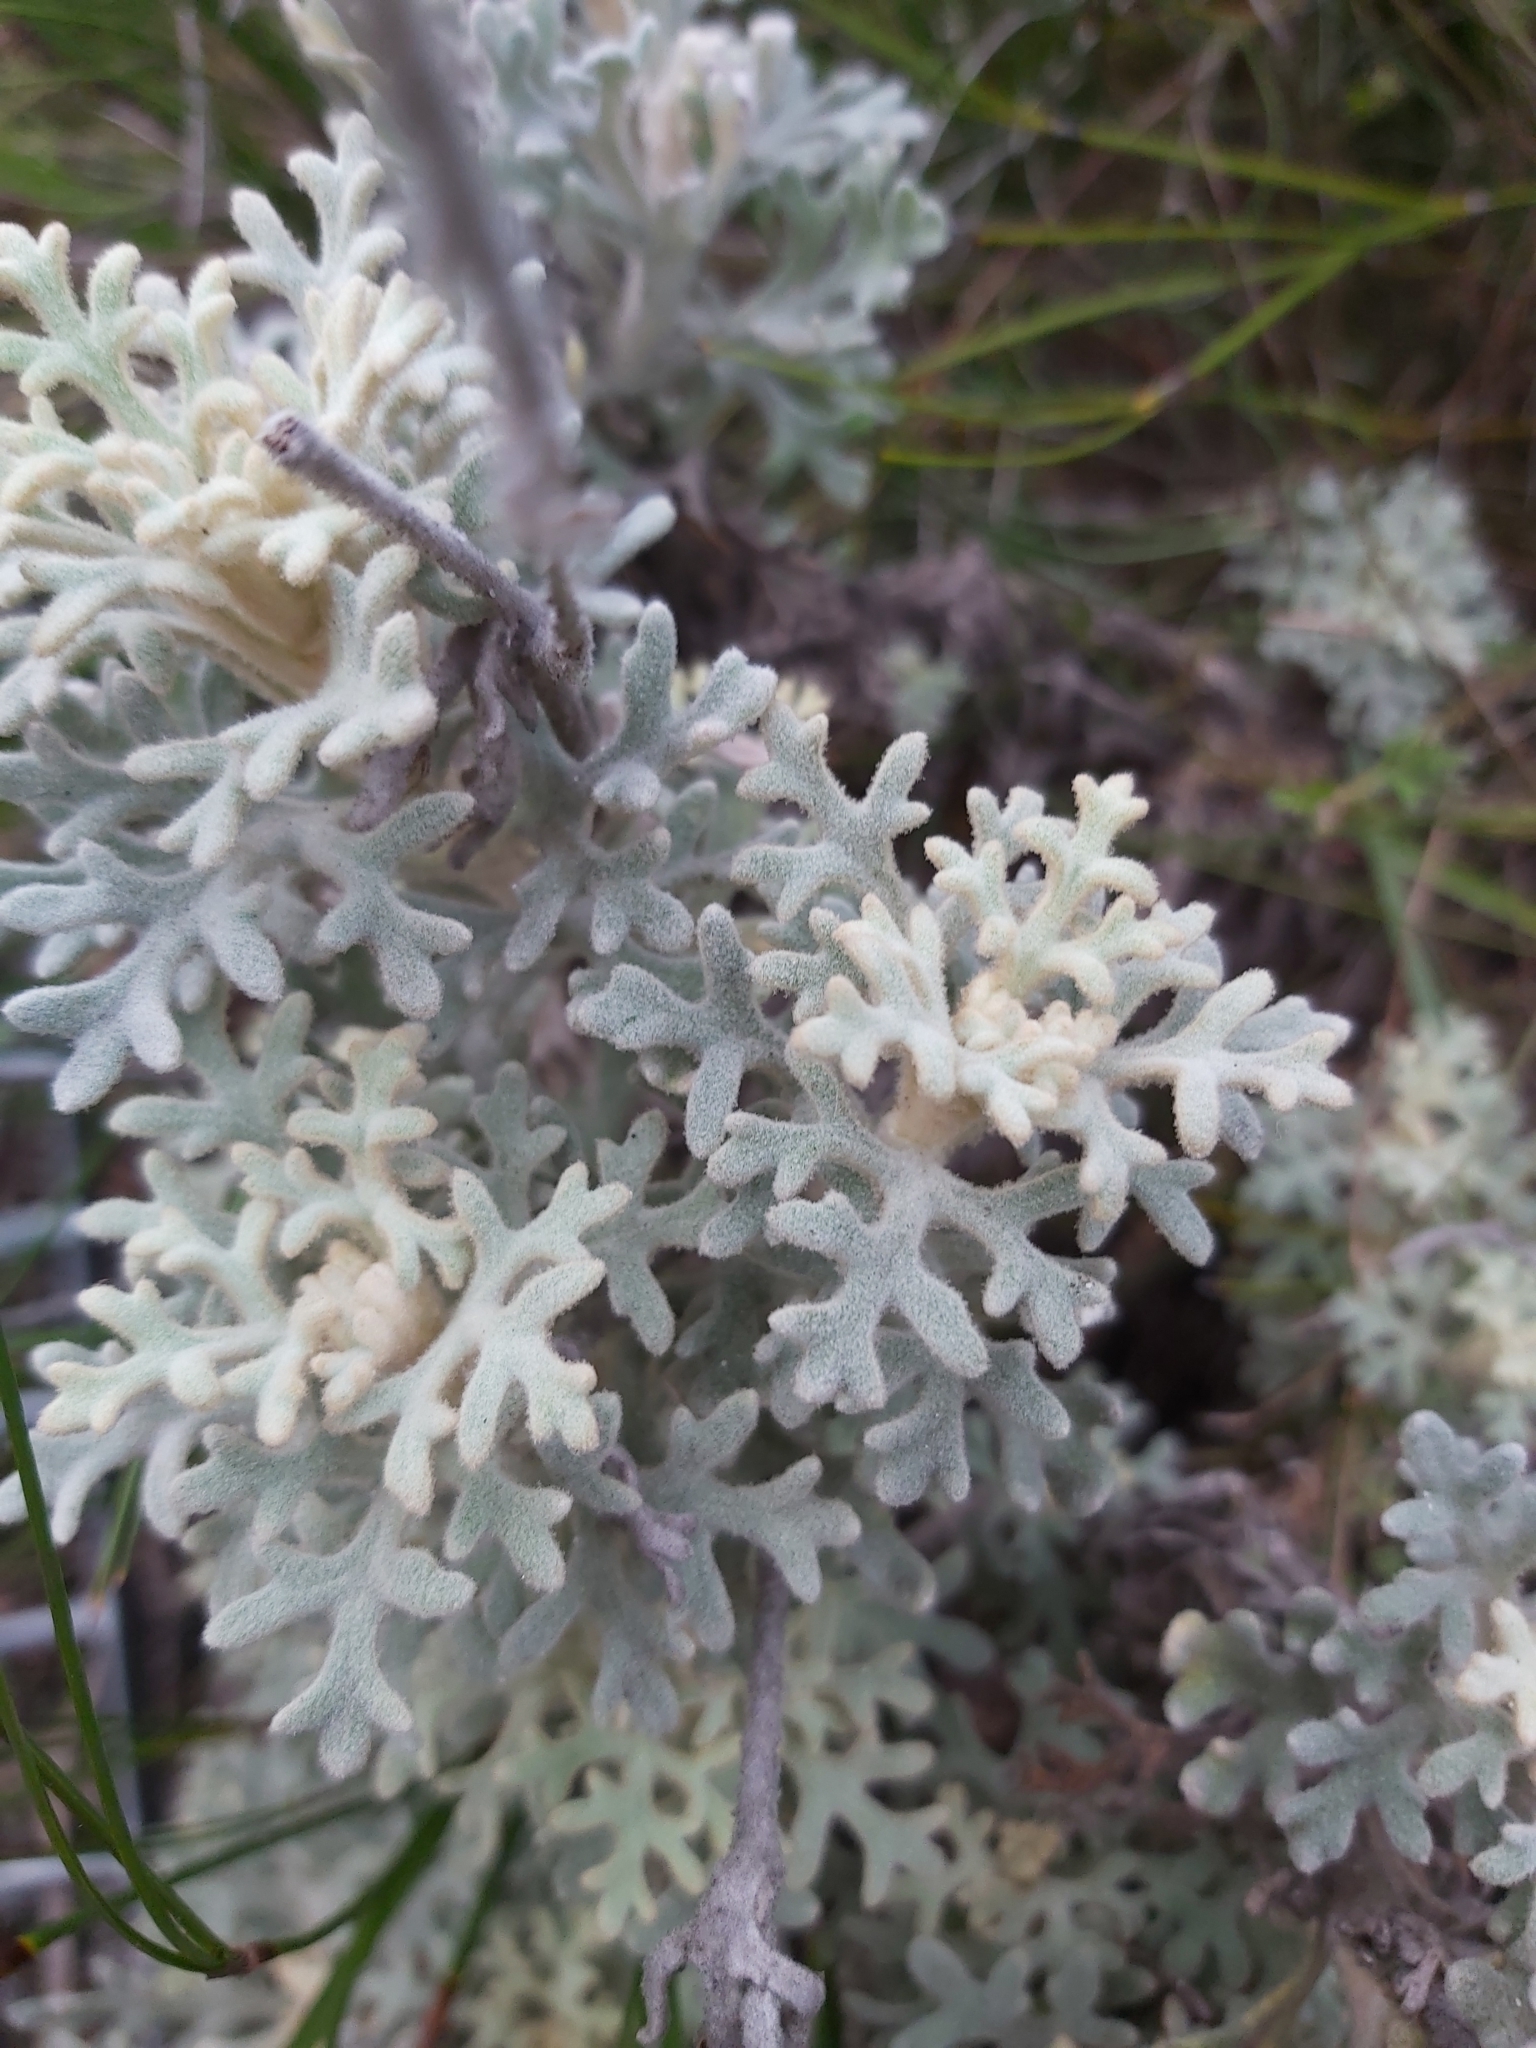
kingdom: Plantae
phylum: Tracheophyta
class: Magnoliopsida
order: Apiales
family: Apiaceae
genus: Actinotus
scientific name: Actinotus helianthi
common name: Flannel-flower
